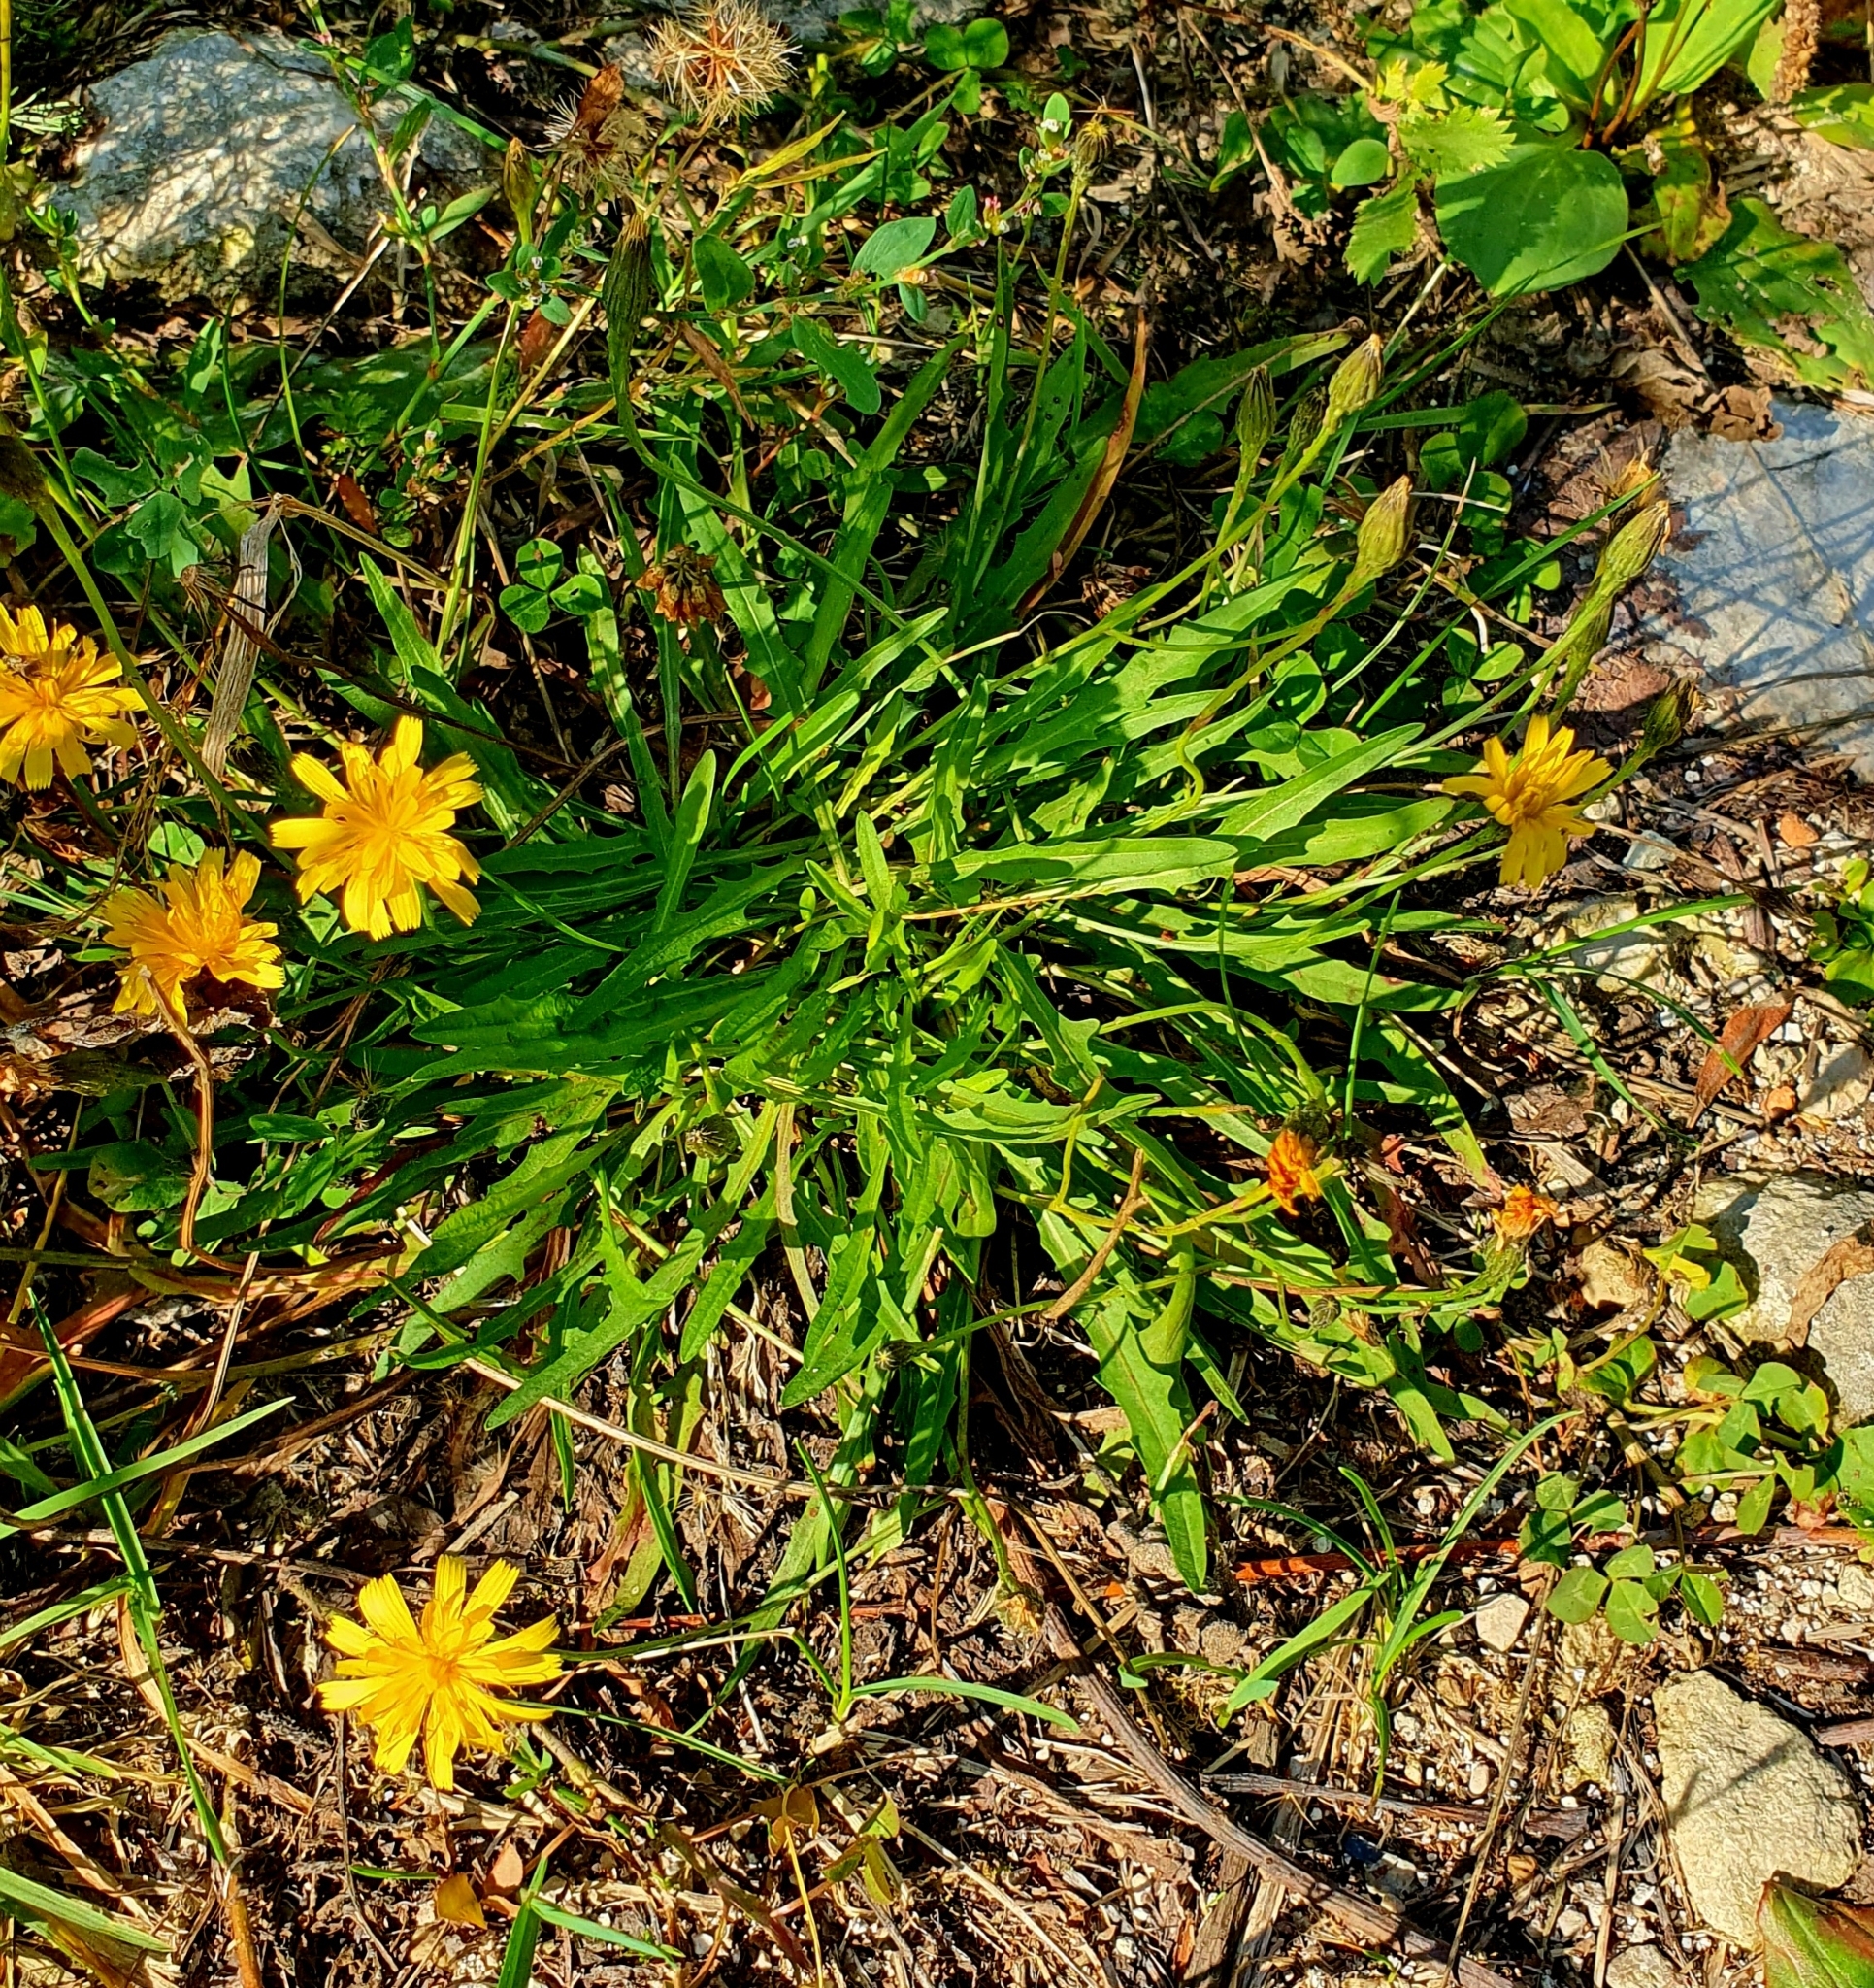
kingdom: Plantae
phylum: Tracheophyta
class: Magnoliopsida
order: Asterales
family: Asteraceae
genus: Scorzoneroides
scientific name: Scorzoneroides autumnalis
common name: Autumn hawkbit
